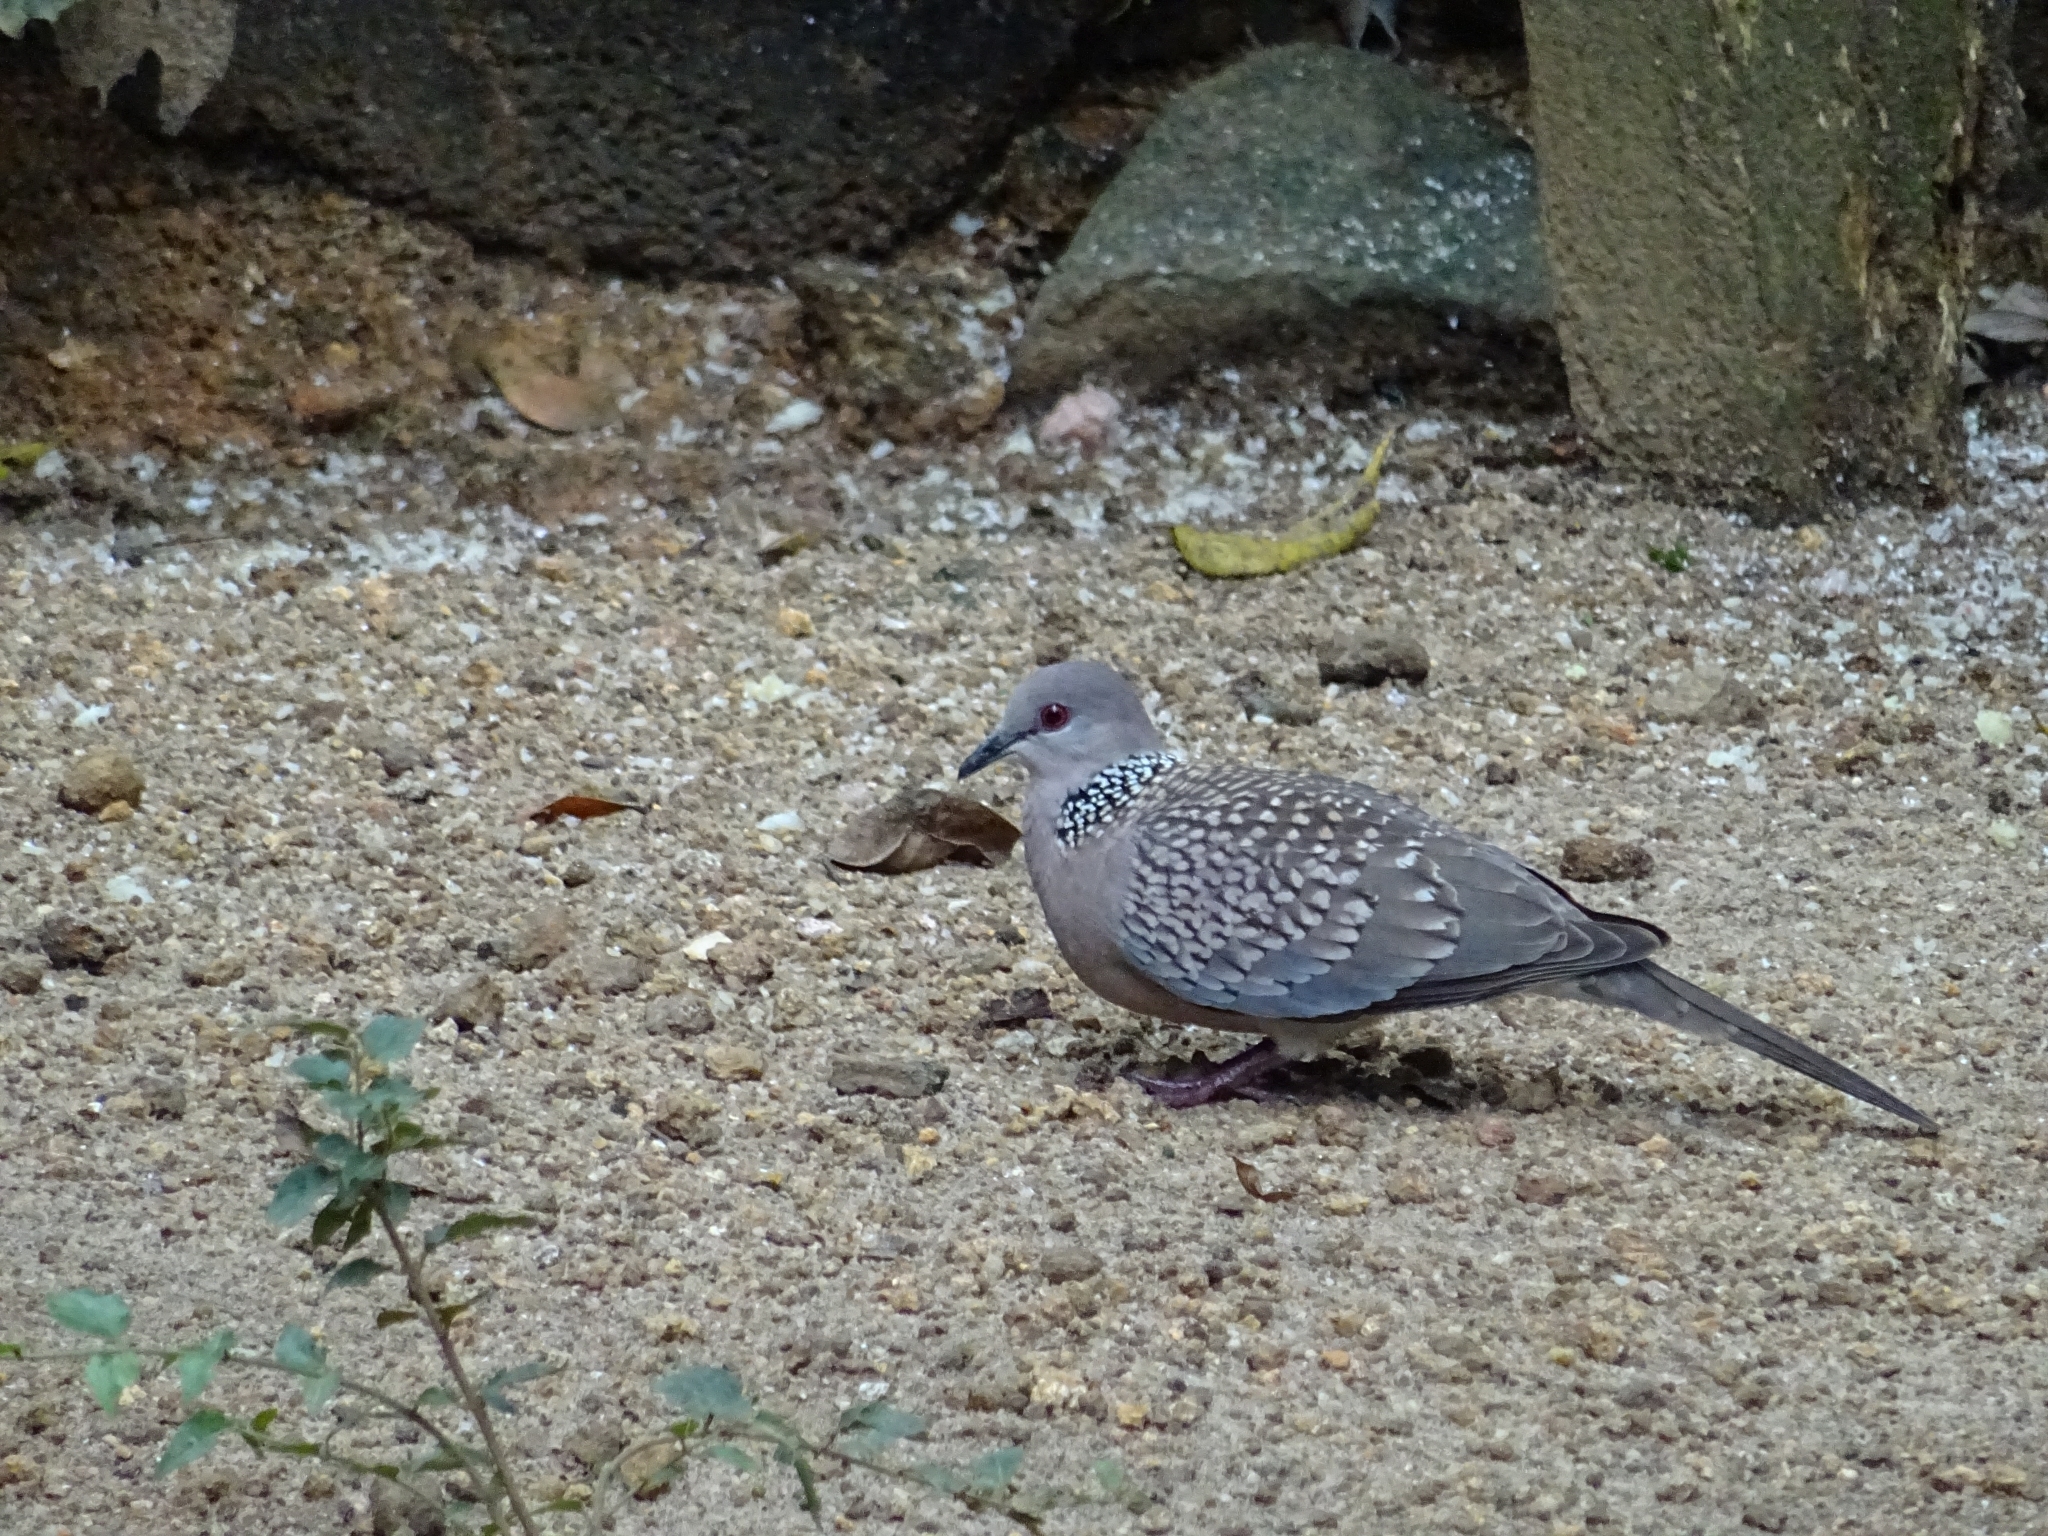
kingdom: Animalia
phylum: Chordata
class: Aves
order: Columbiformes
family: Columbidae
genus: Spilopelia
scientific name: Spilopelia chinensis
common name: Spotted dove
